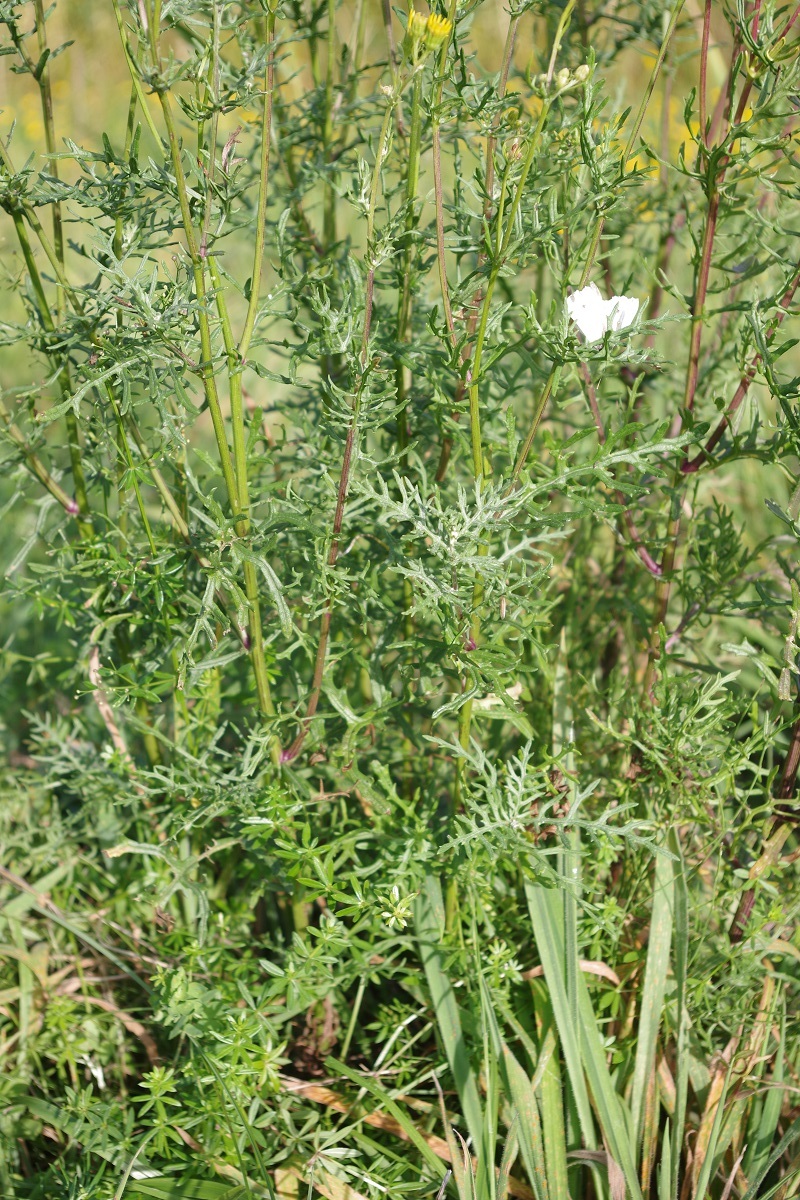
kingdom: Plantae
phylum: Tracheophyta
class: Magnoliopsida
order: Asterales
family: Asteraceae
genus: Jacobaea
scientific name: Jacobaea erucifolia
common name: Hoary ragwort
